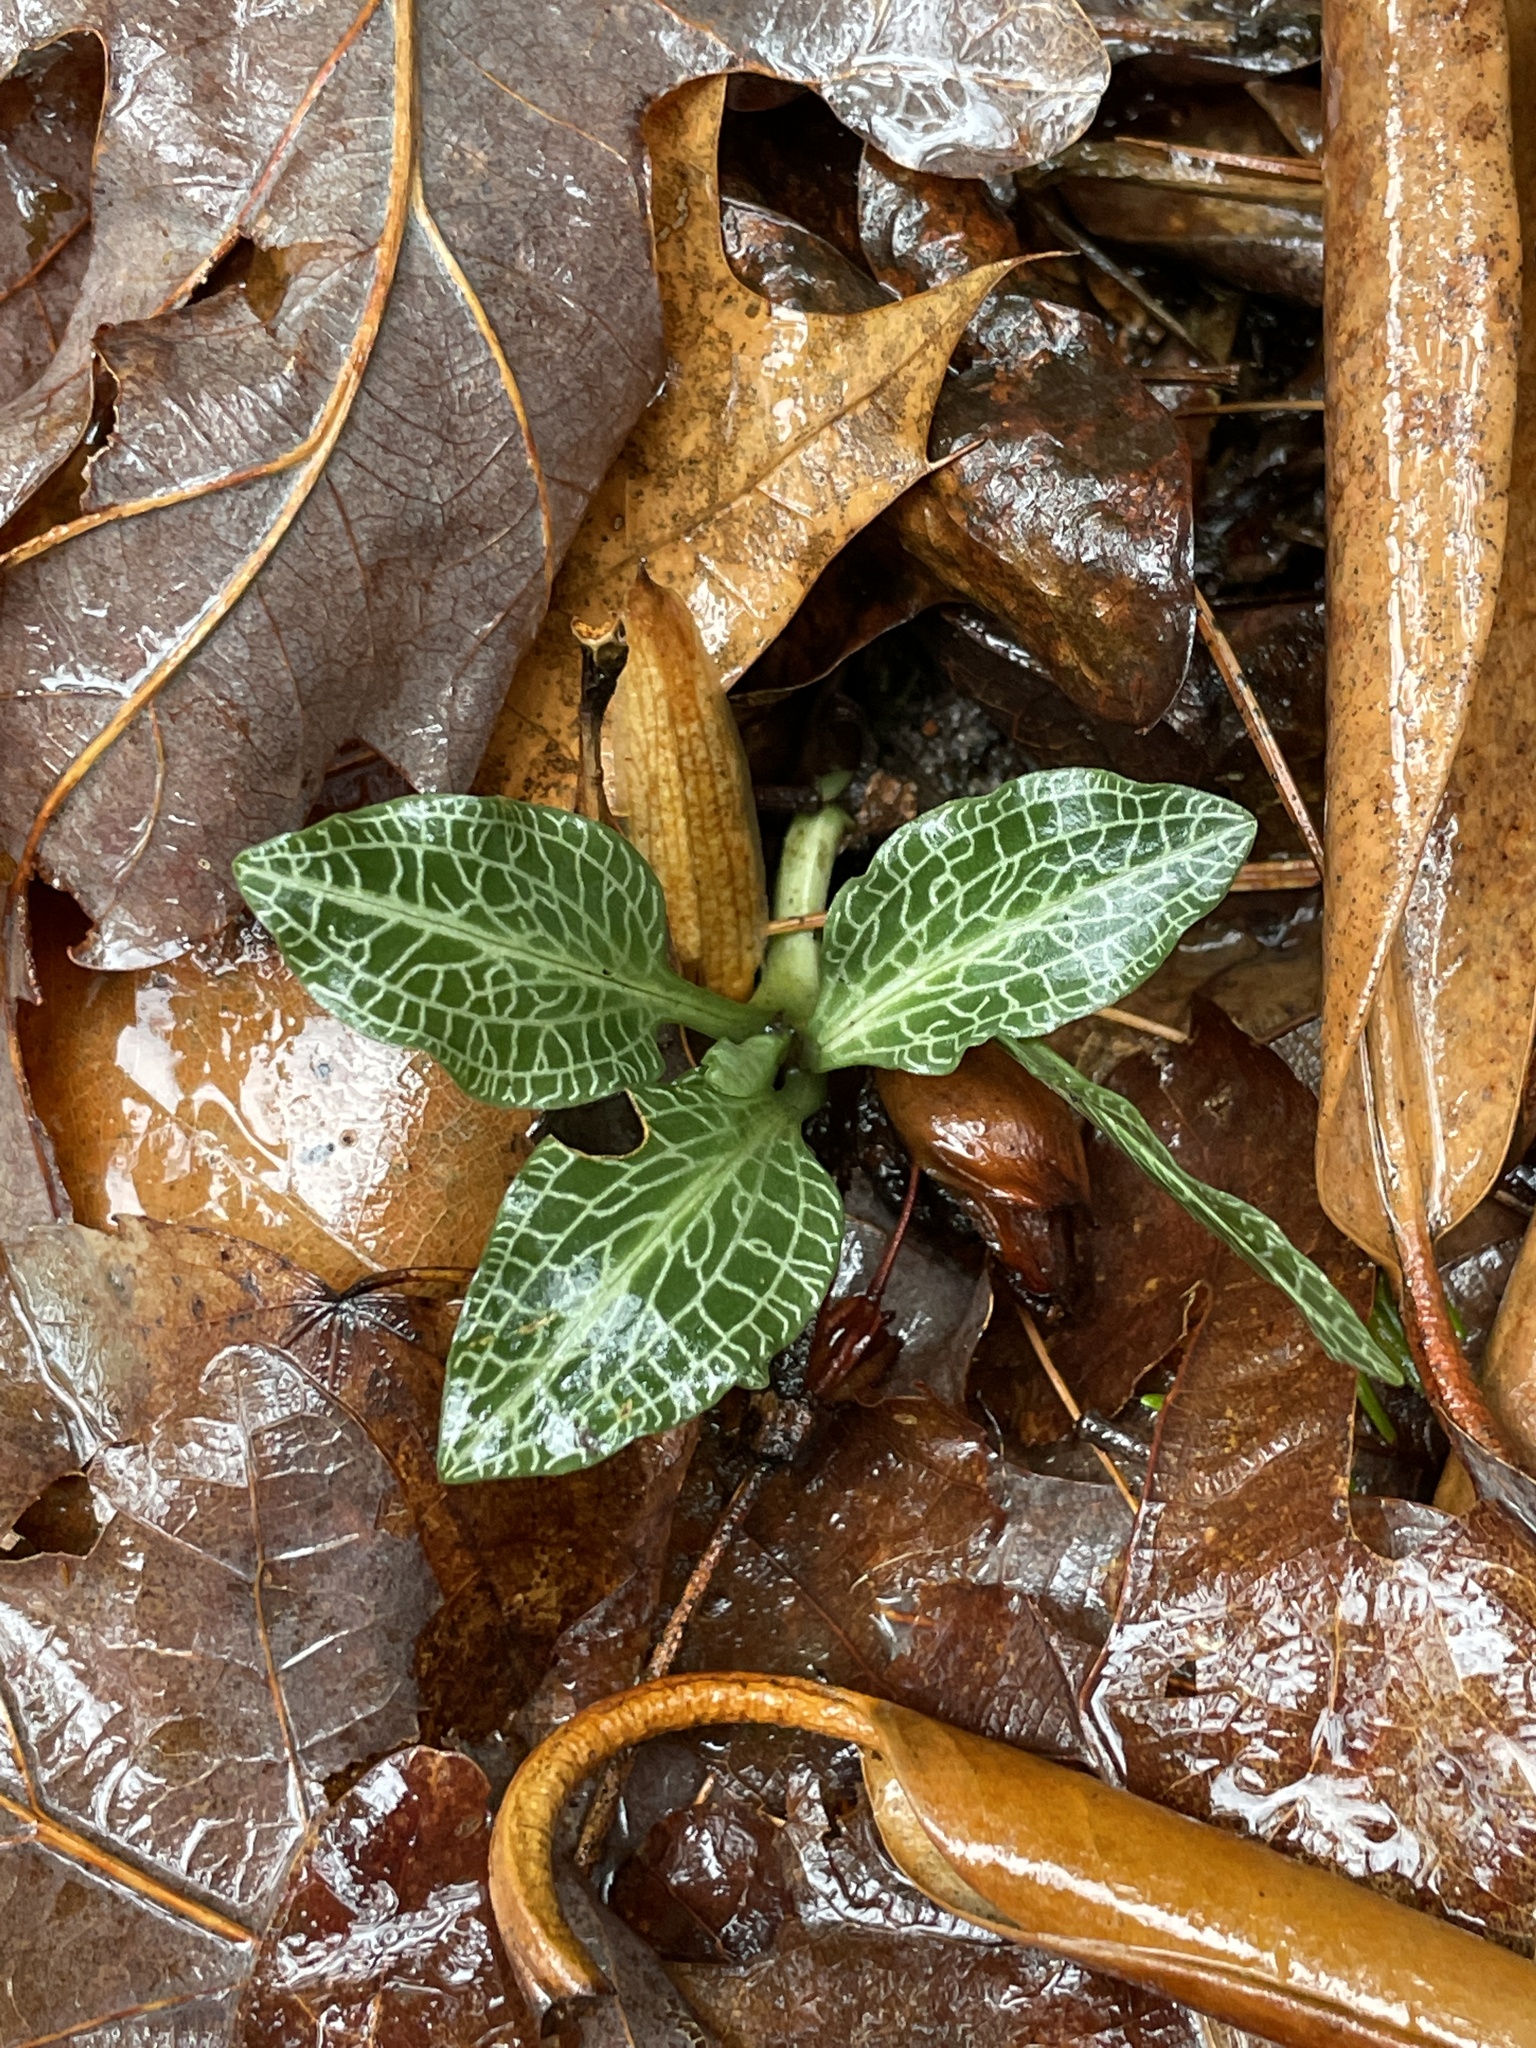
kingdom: Plantae
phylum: Tracheophyta
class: Liliopsida
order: Asparagales
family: Orchidaceae
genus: Goodyera
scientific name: Goodyera pubescens
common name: Downy rattlesnake-plantain
